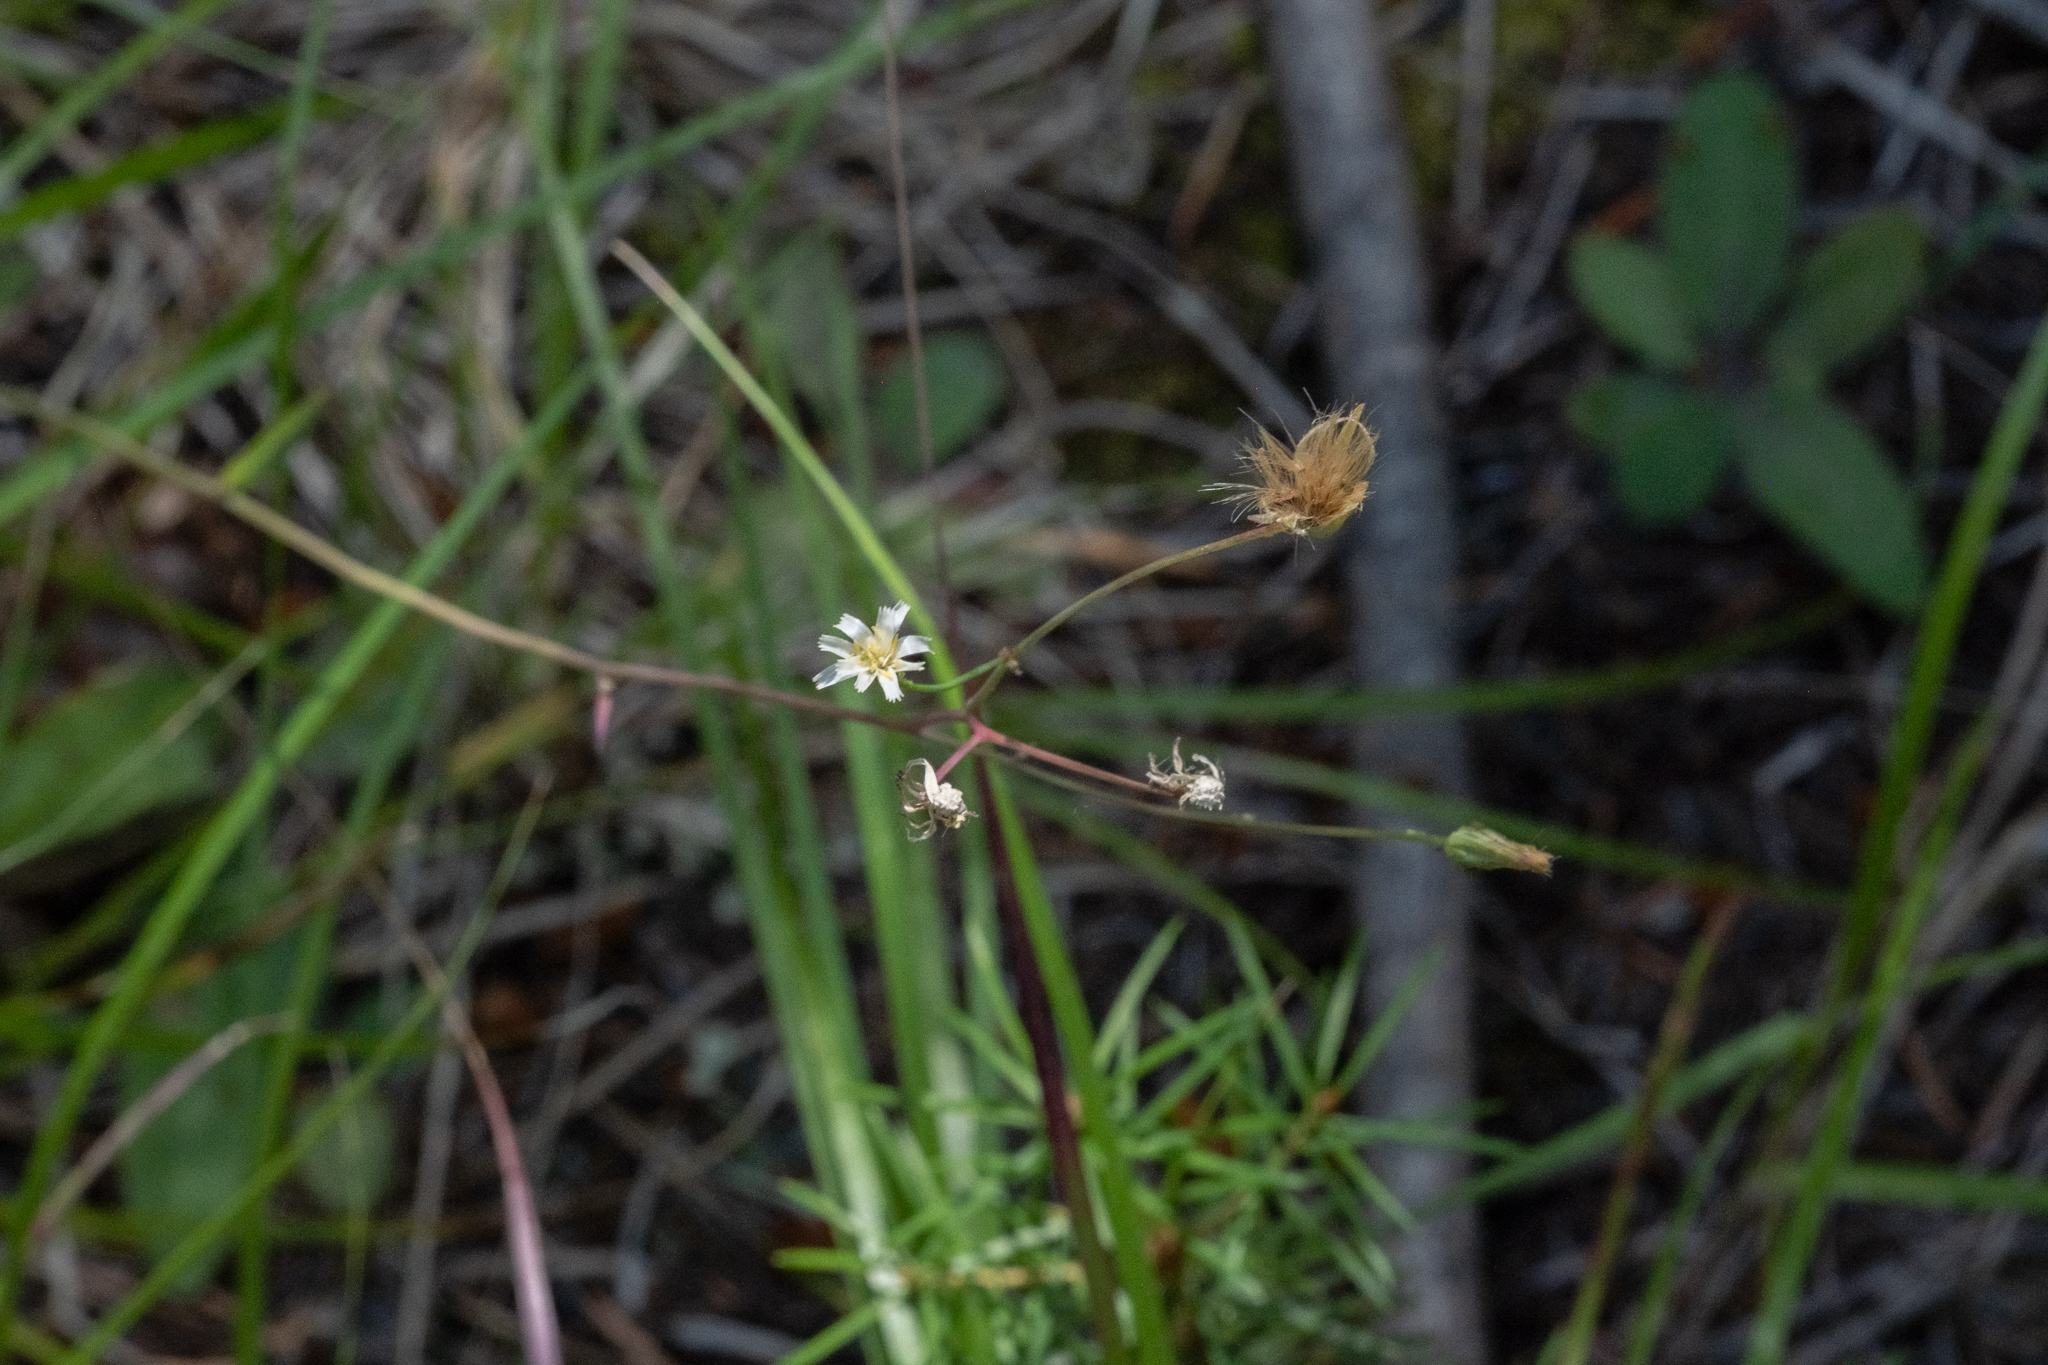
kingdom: Plantae
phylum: Tracheophyta
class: Magnoliopsida
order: Asterales
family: Asteraceae
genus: Hieracium
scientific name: Hieracium albiflorum
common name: White hawkweed
